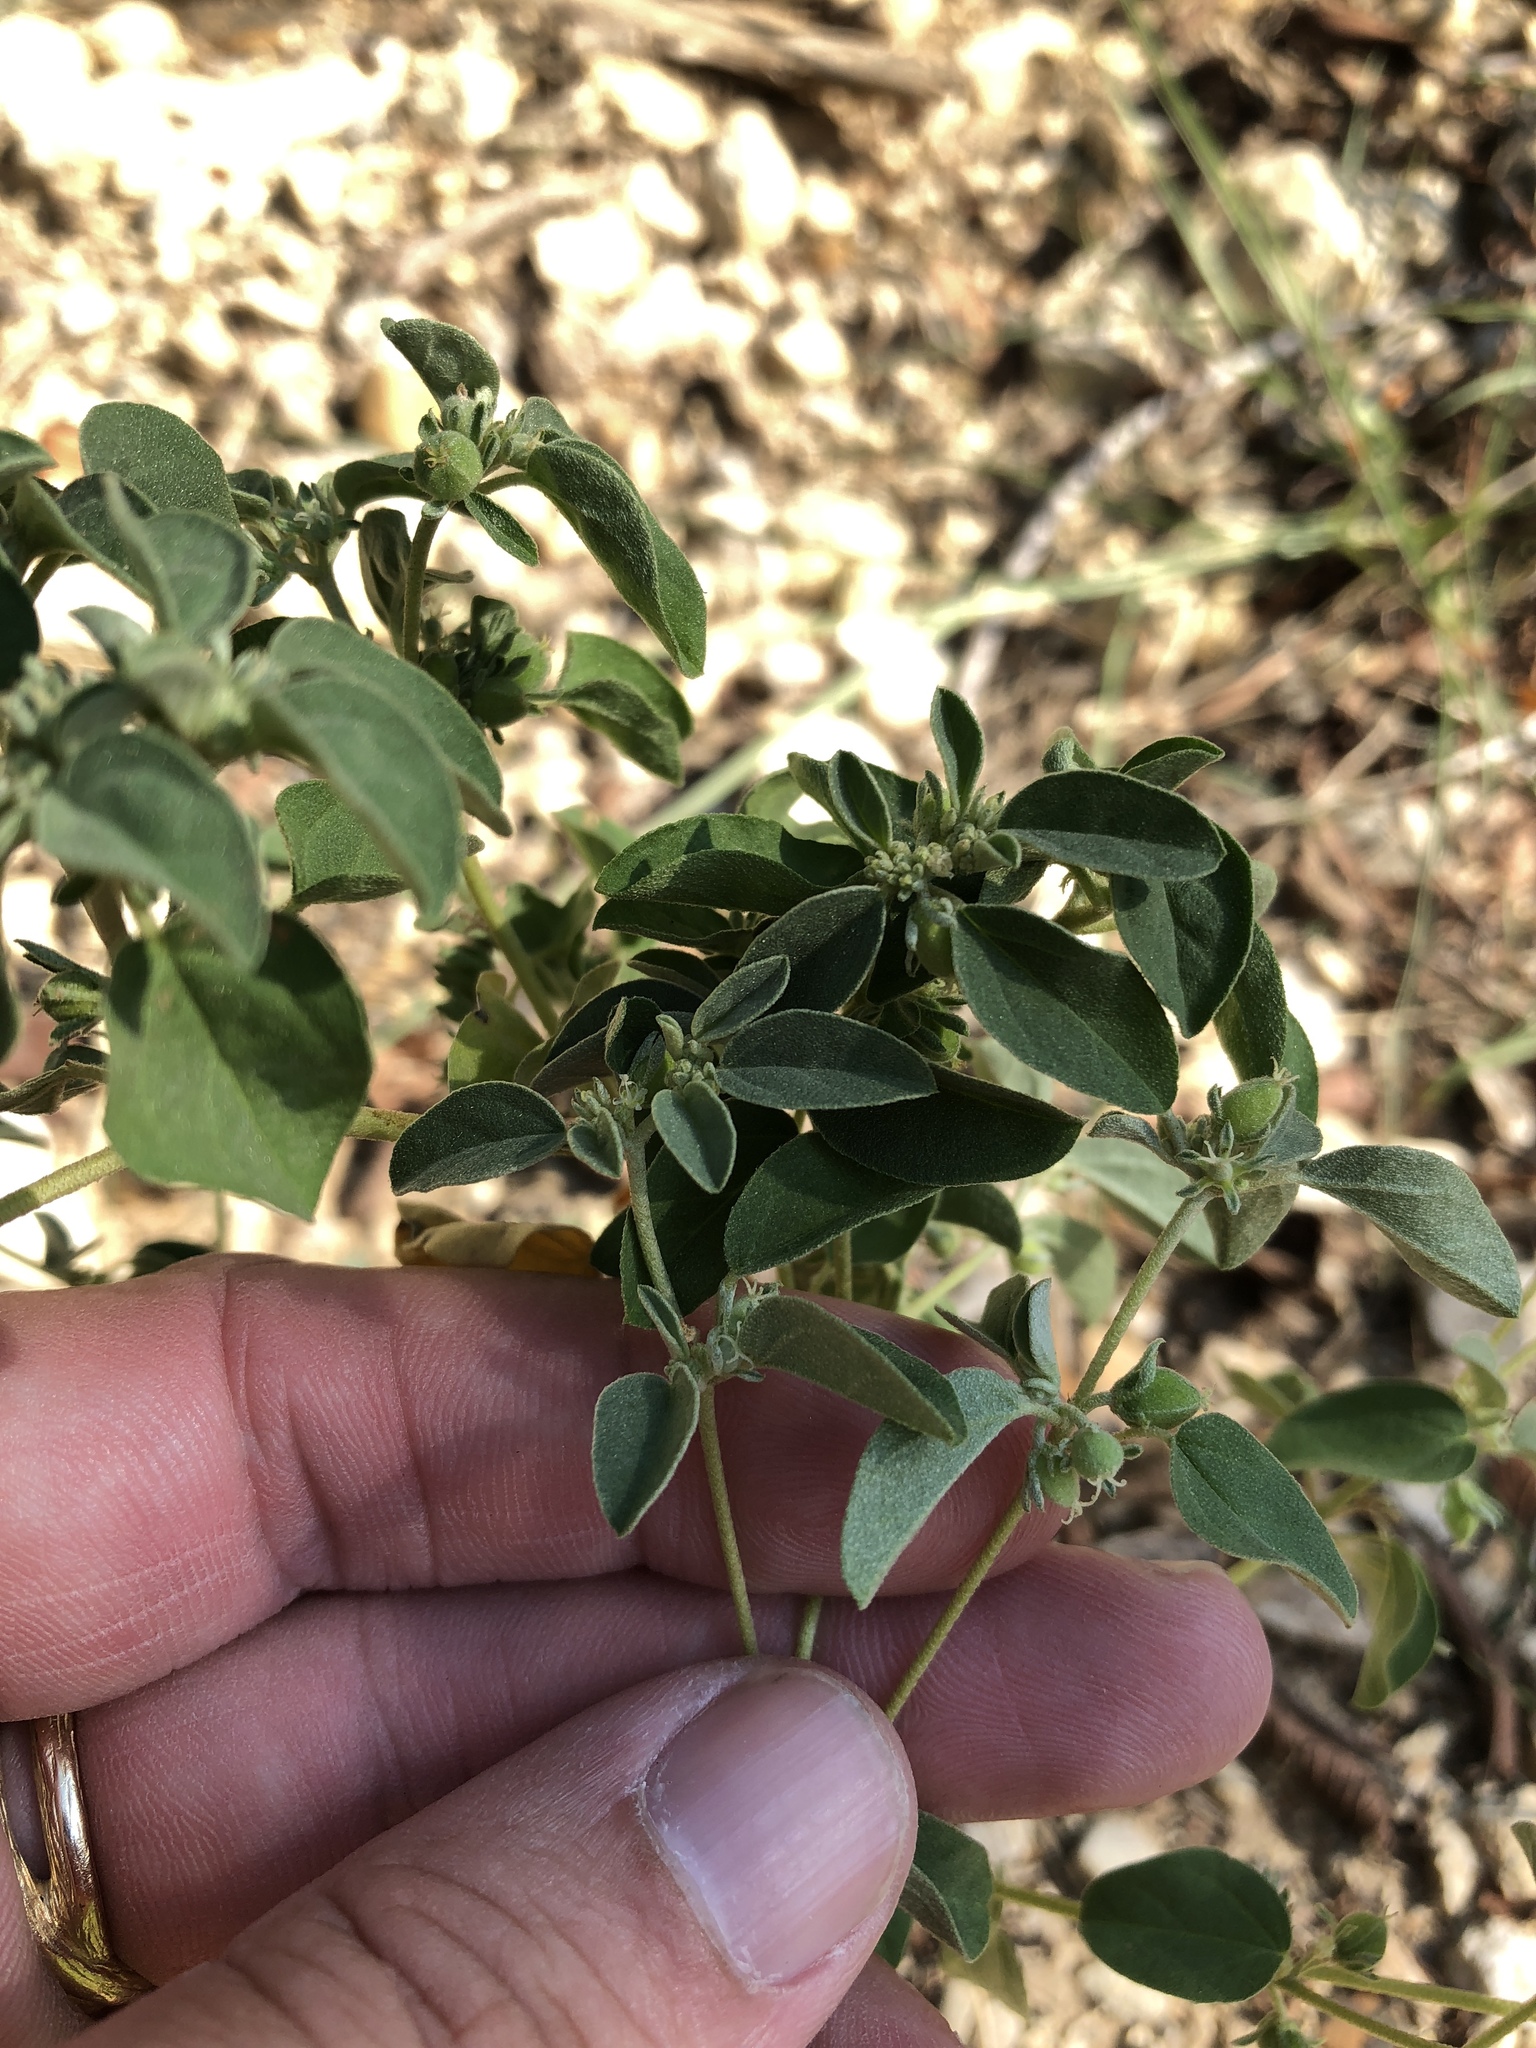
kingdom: Plantae
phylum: Tracheophyta
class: Magnoliopsida
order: Malpighiales
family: Euphorbiaceae
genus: Croton
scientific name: Croton monanthogynus
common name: One-seed croton
